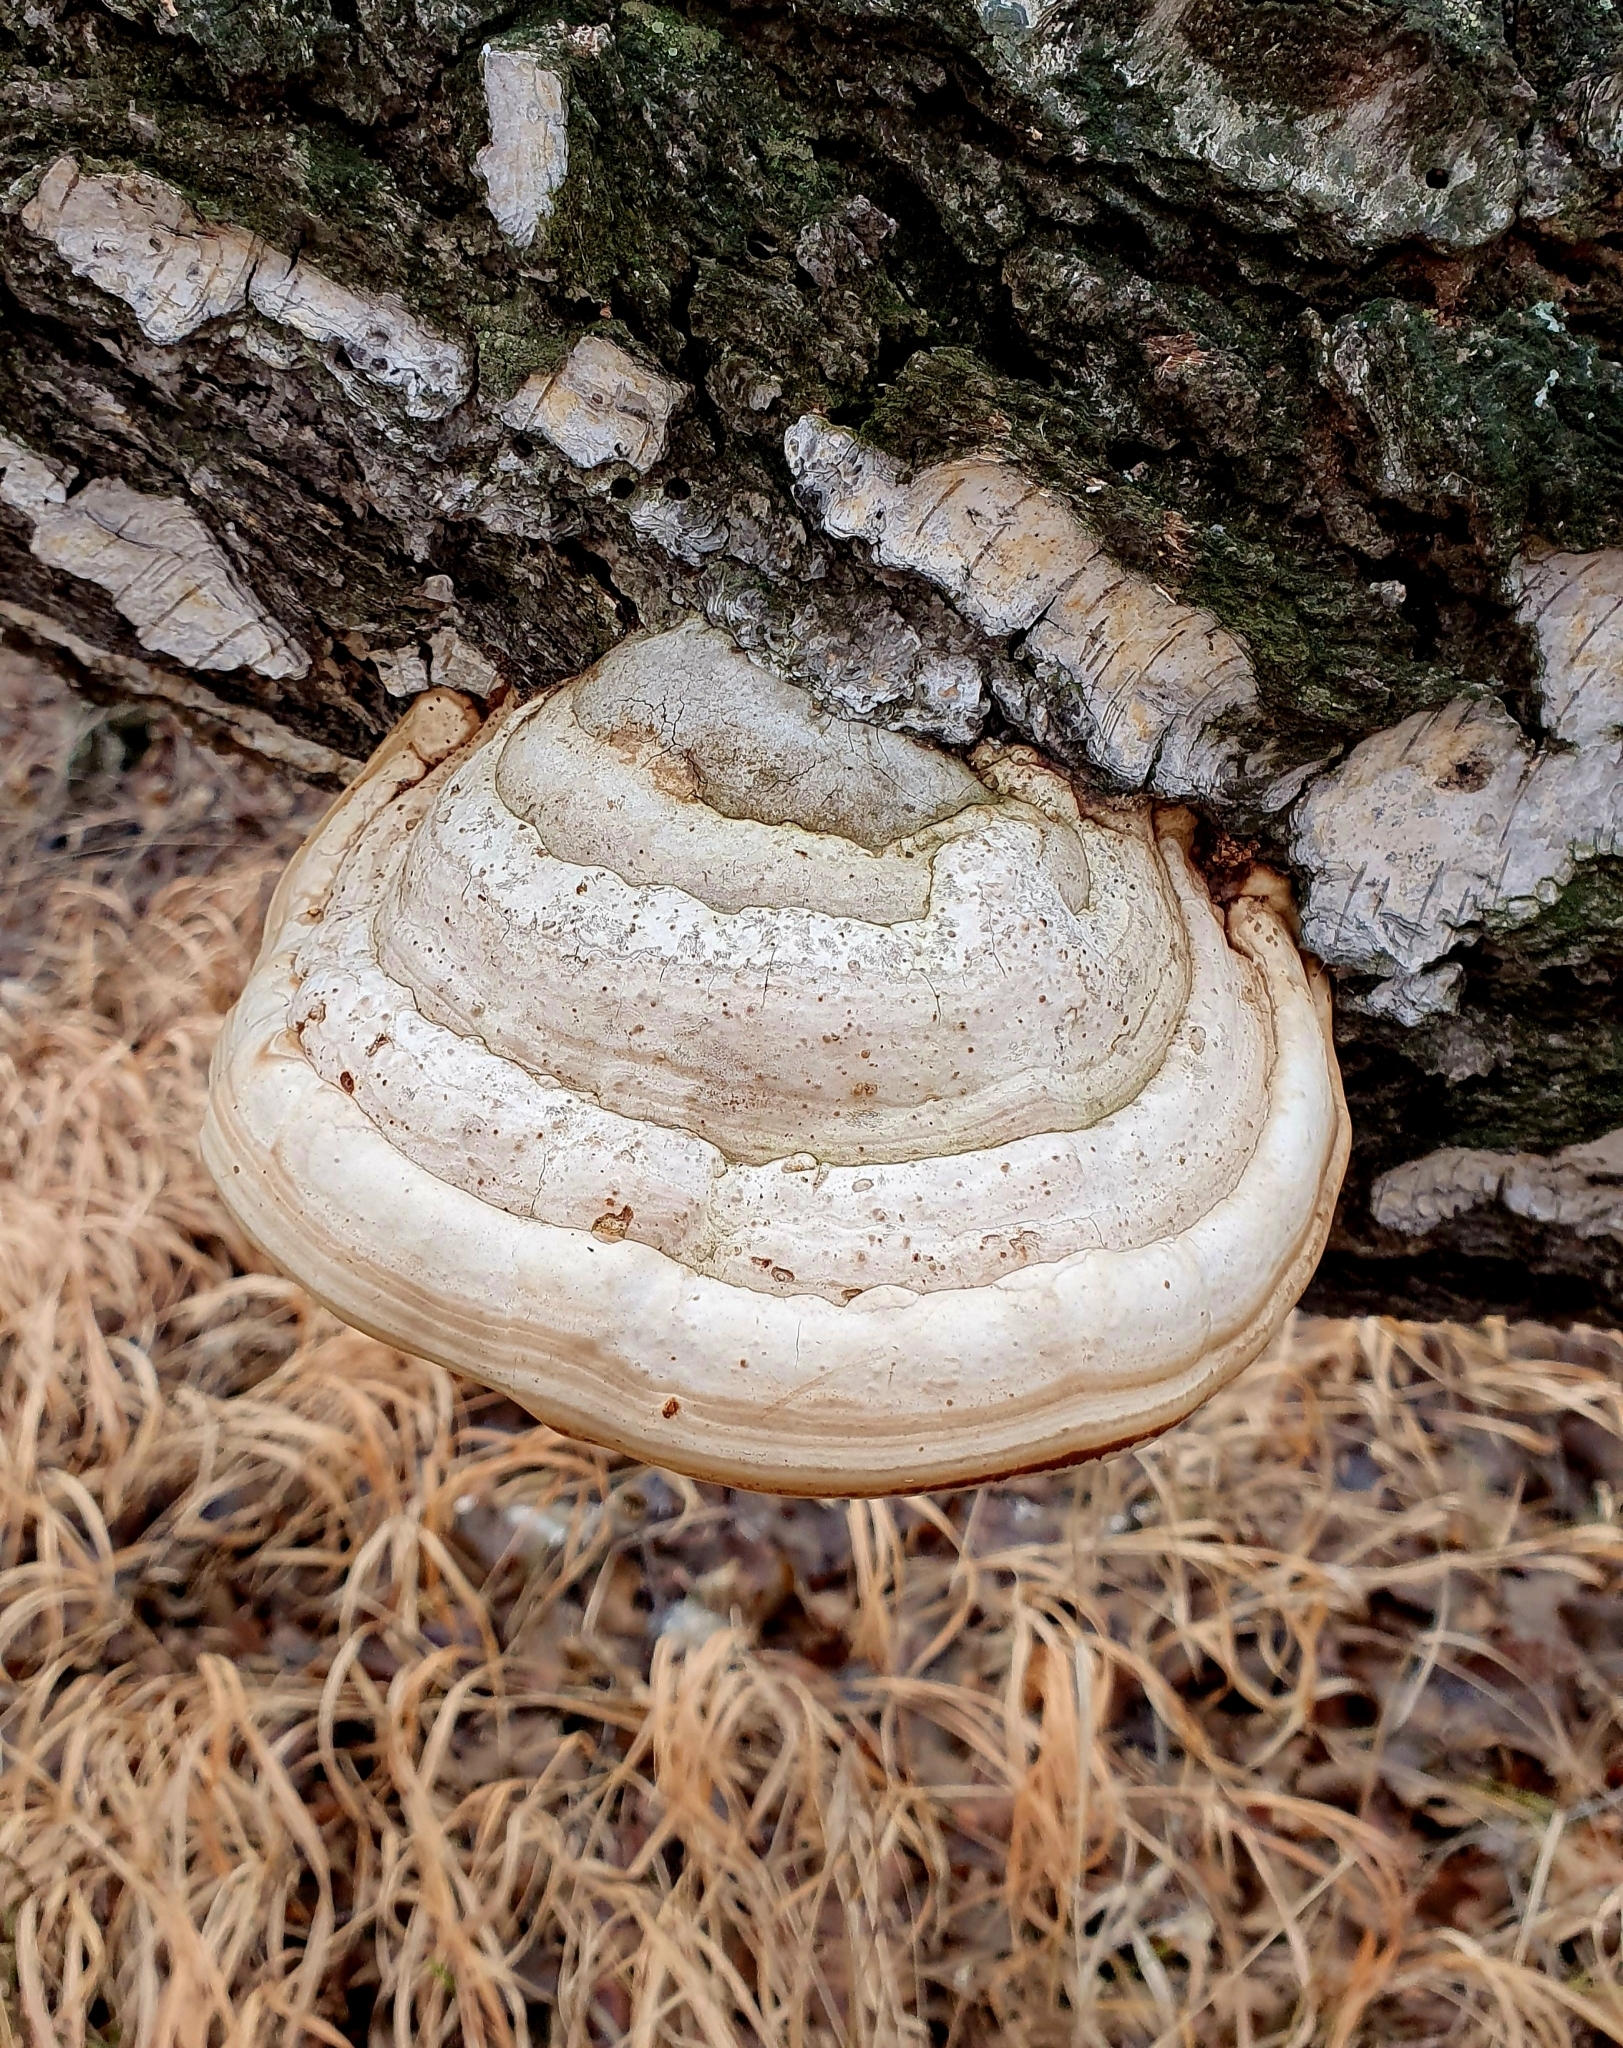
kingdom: Fungi
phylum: Basidiomycota
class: Agaricomycetes
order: Polyporales
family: Polyporaceae
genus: Fomes
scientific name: Fomes fomentarius
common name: Hoof fungus
